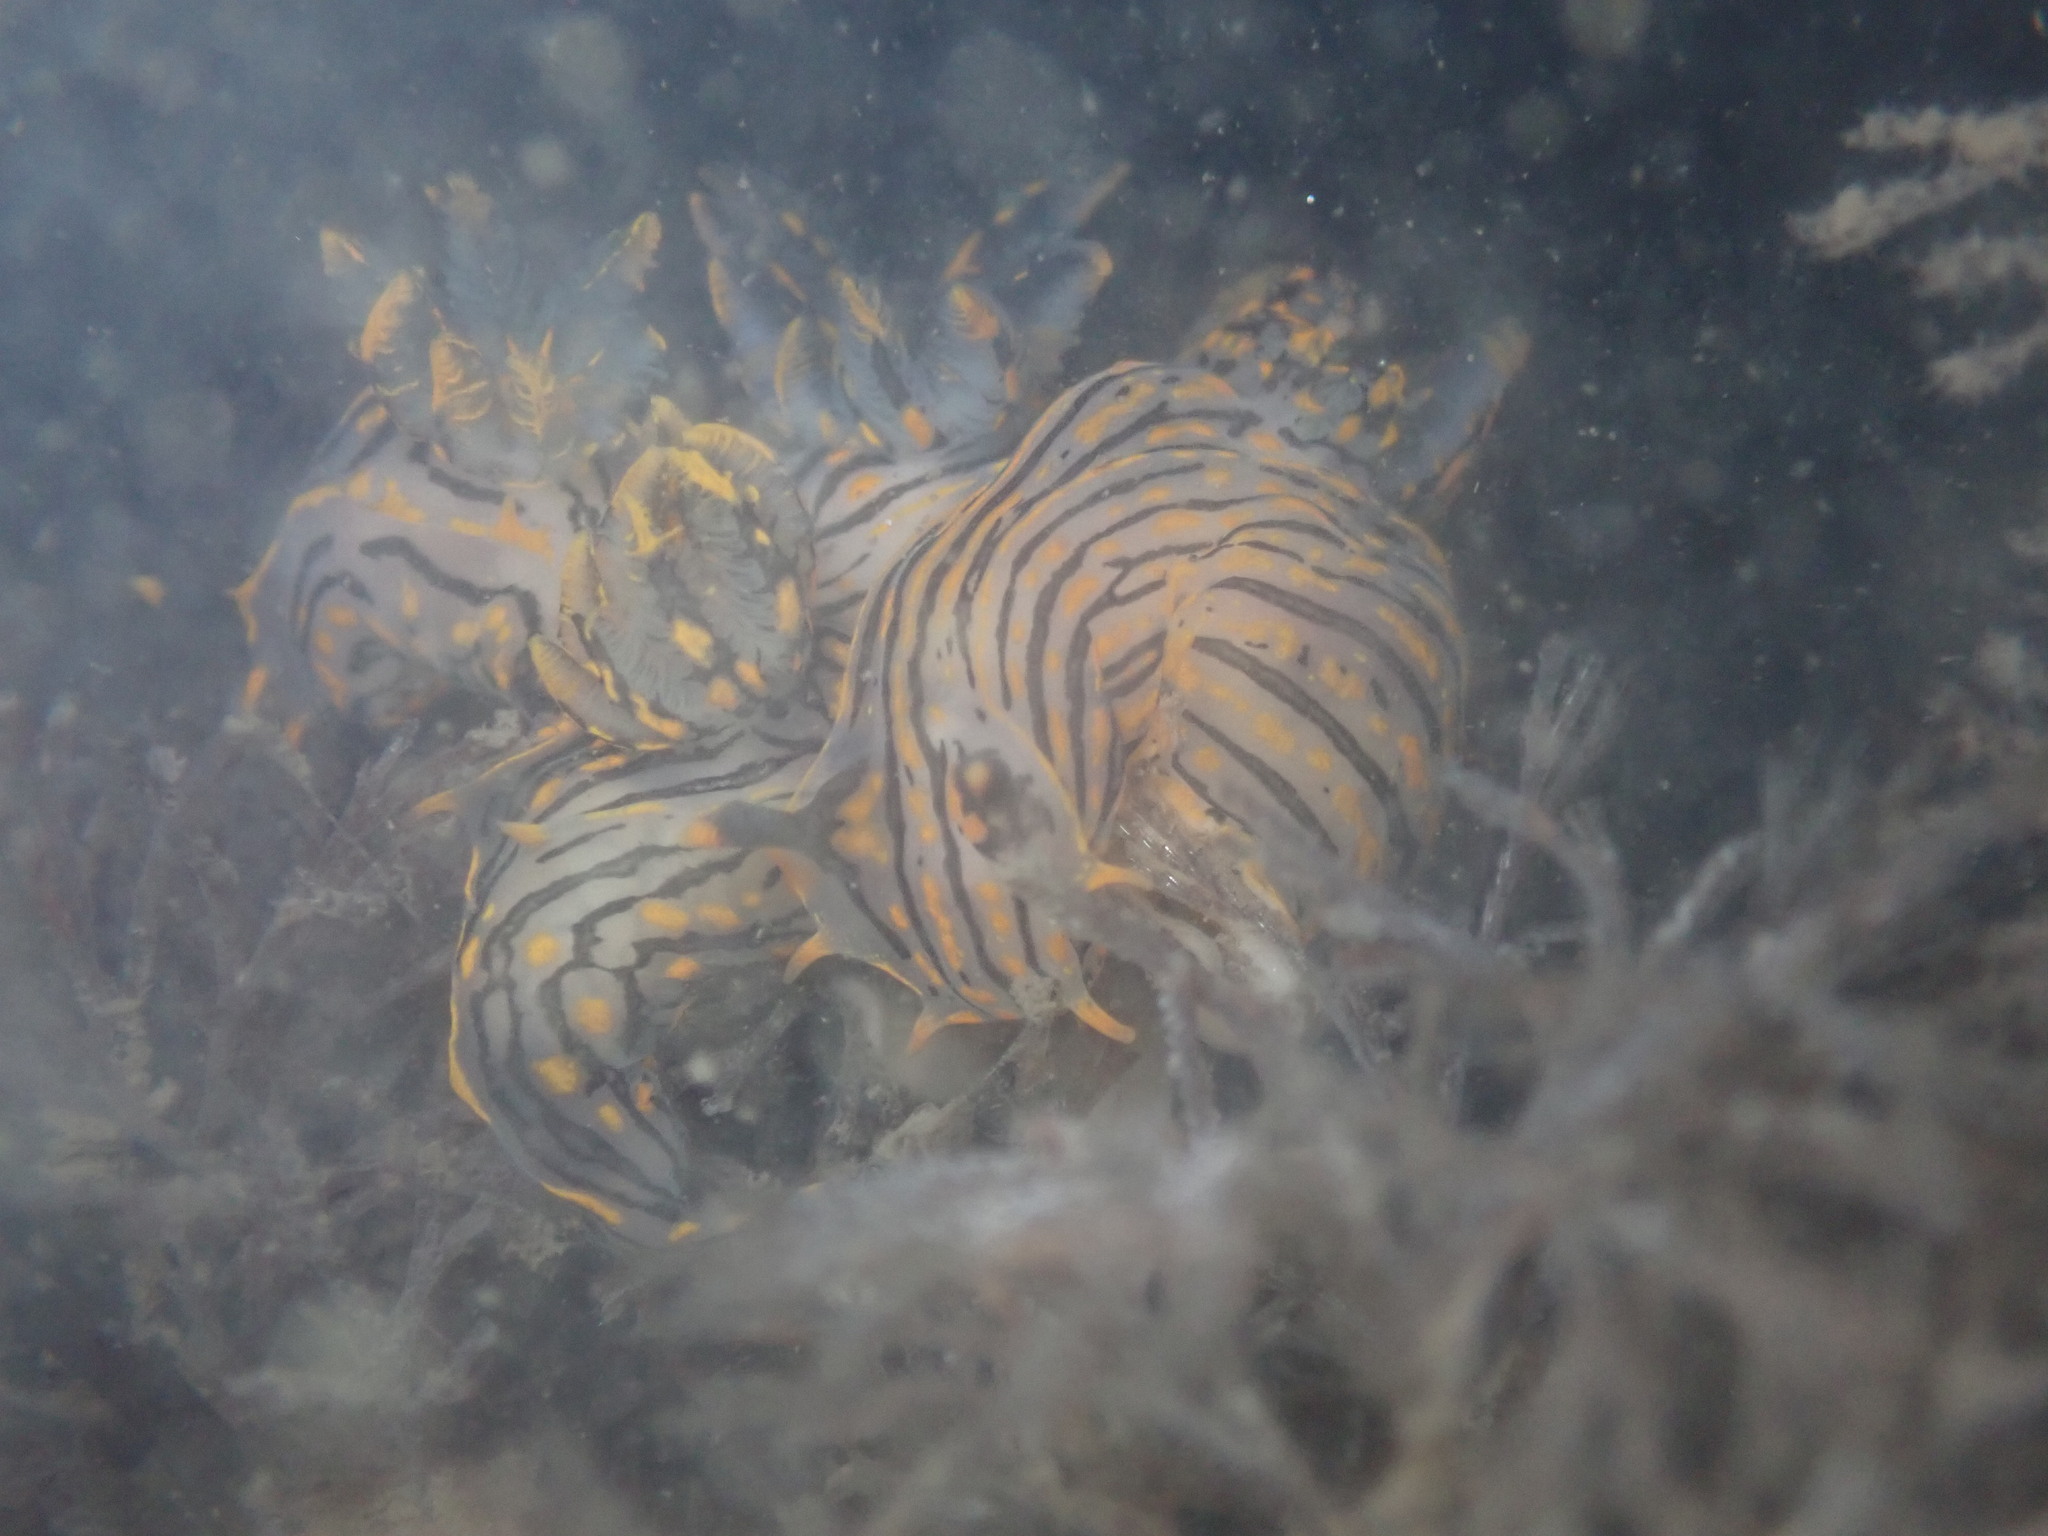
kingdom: Animalia
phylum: Mollusca
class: Gastropoda
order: Nudibranchia
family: Polyceridae
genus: Polycera
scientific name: Polycera atra
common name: Orange-spike polycera
